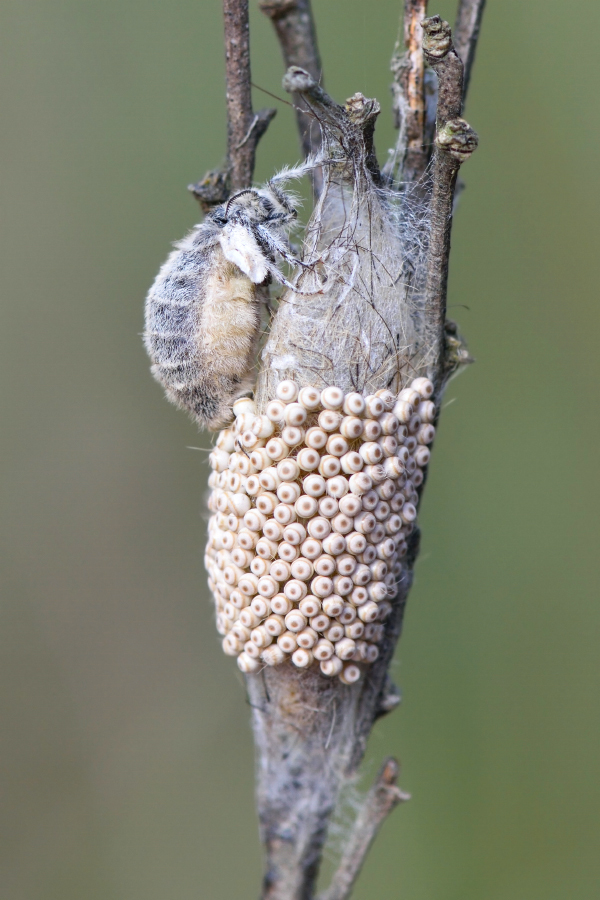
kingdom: Animalia
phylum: Arthropoda
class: Insecta
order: Lepidoptera
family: Erebidae
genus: Orgyia
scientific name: Orgyia antiqua
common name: Vapourer
